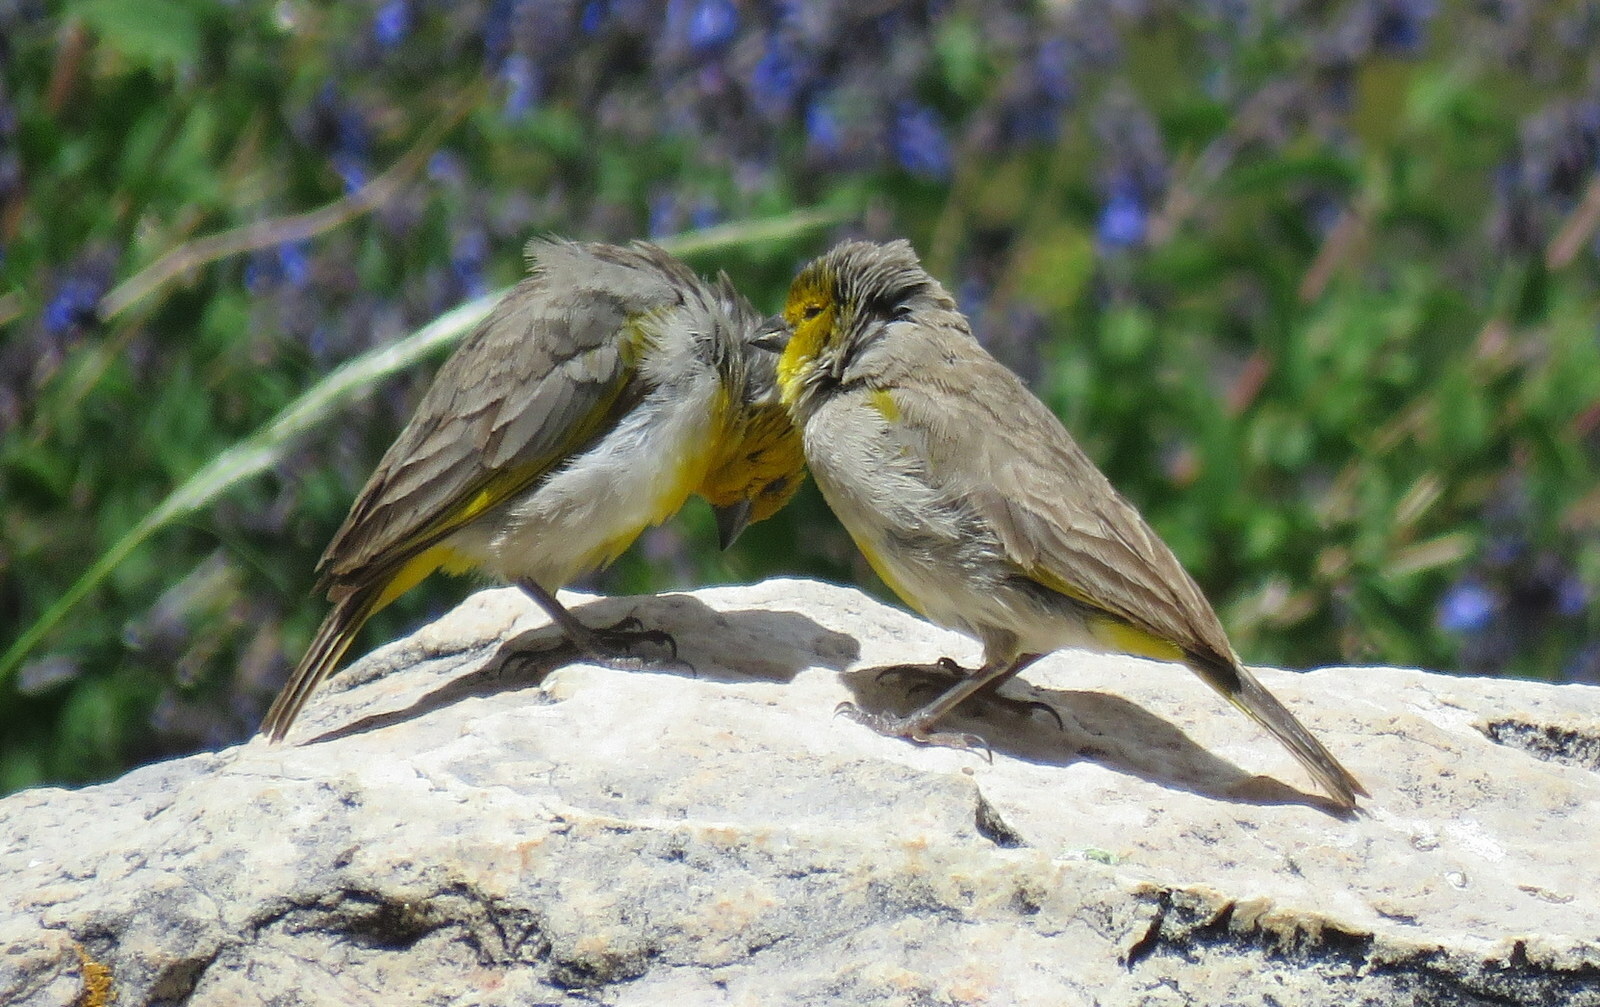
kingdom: Animalia
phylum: Chordata
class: Aves
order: Passeriformes
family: Thraupidae
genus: Sicalis
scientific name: Sicalis luteocephala
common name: Citron-headed yellow finch
